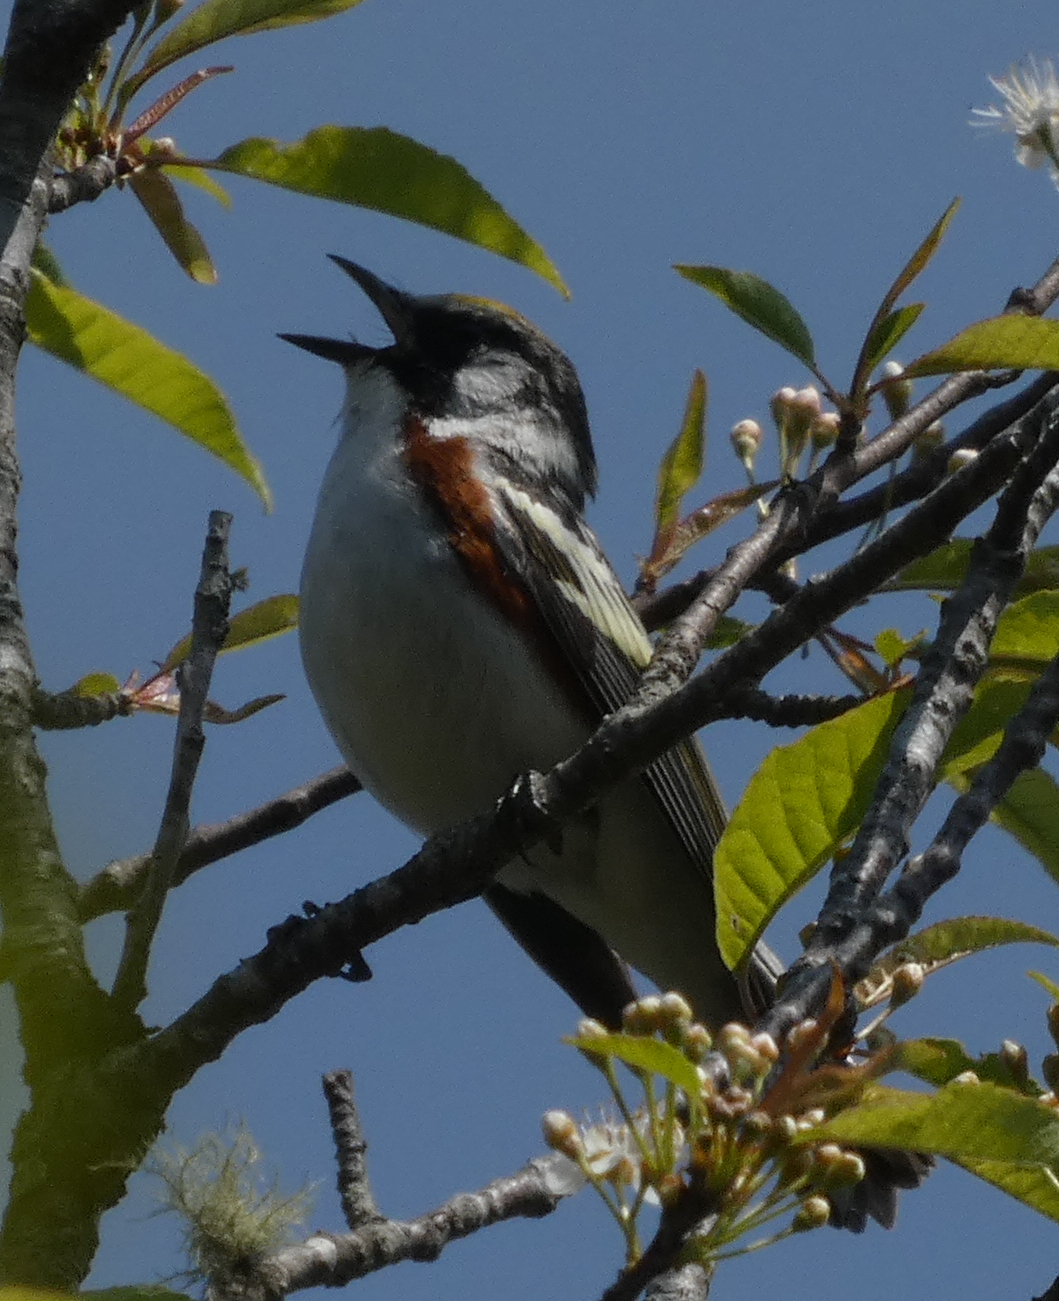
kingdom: Animalia
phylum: Chordata
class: Aves
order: Passeriformes
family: Parulidae
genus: Setophaga
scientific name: Setophaga pensylvanica
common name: Chestnut-sided warbler
